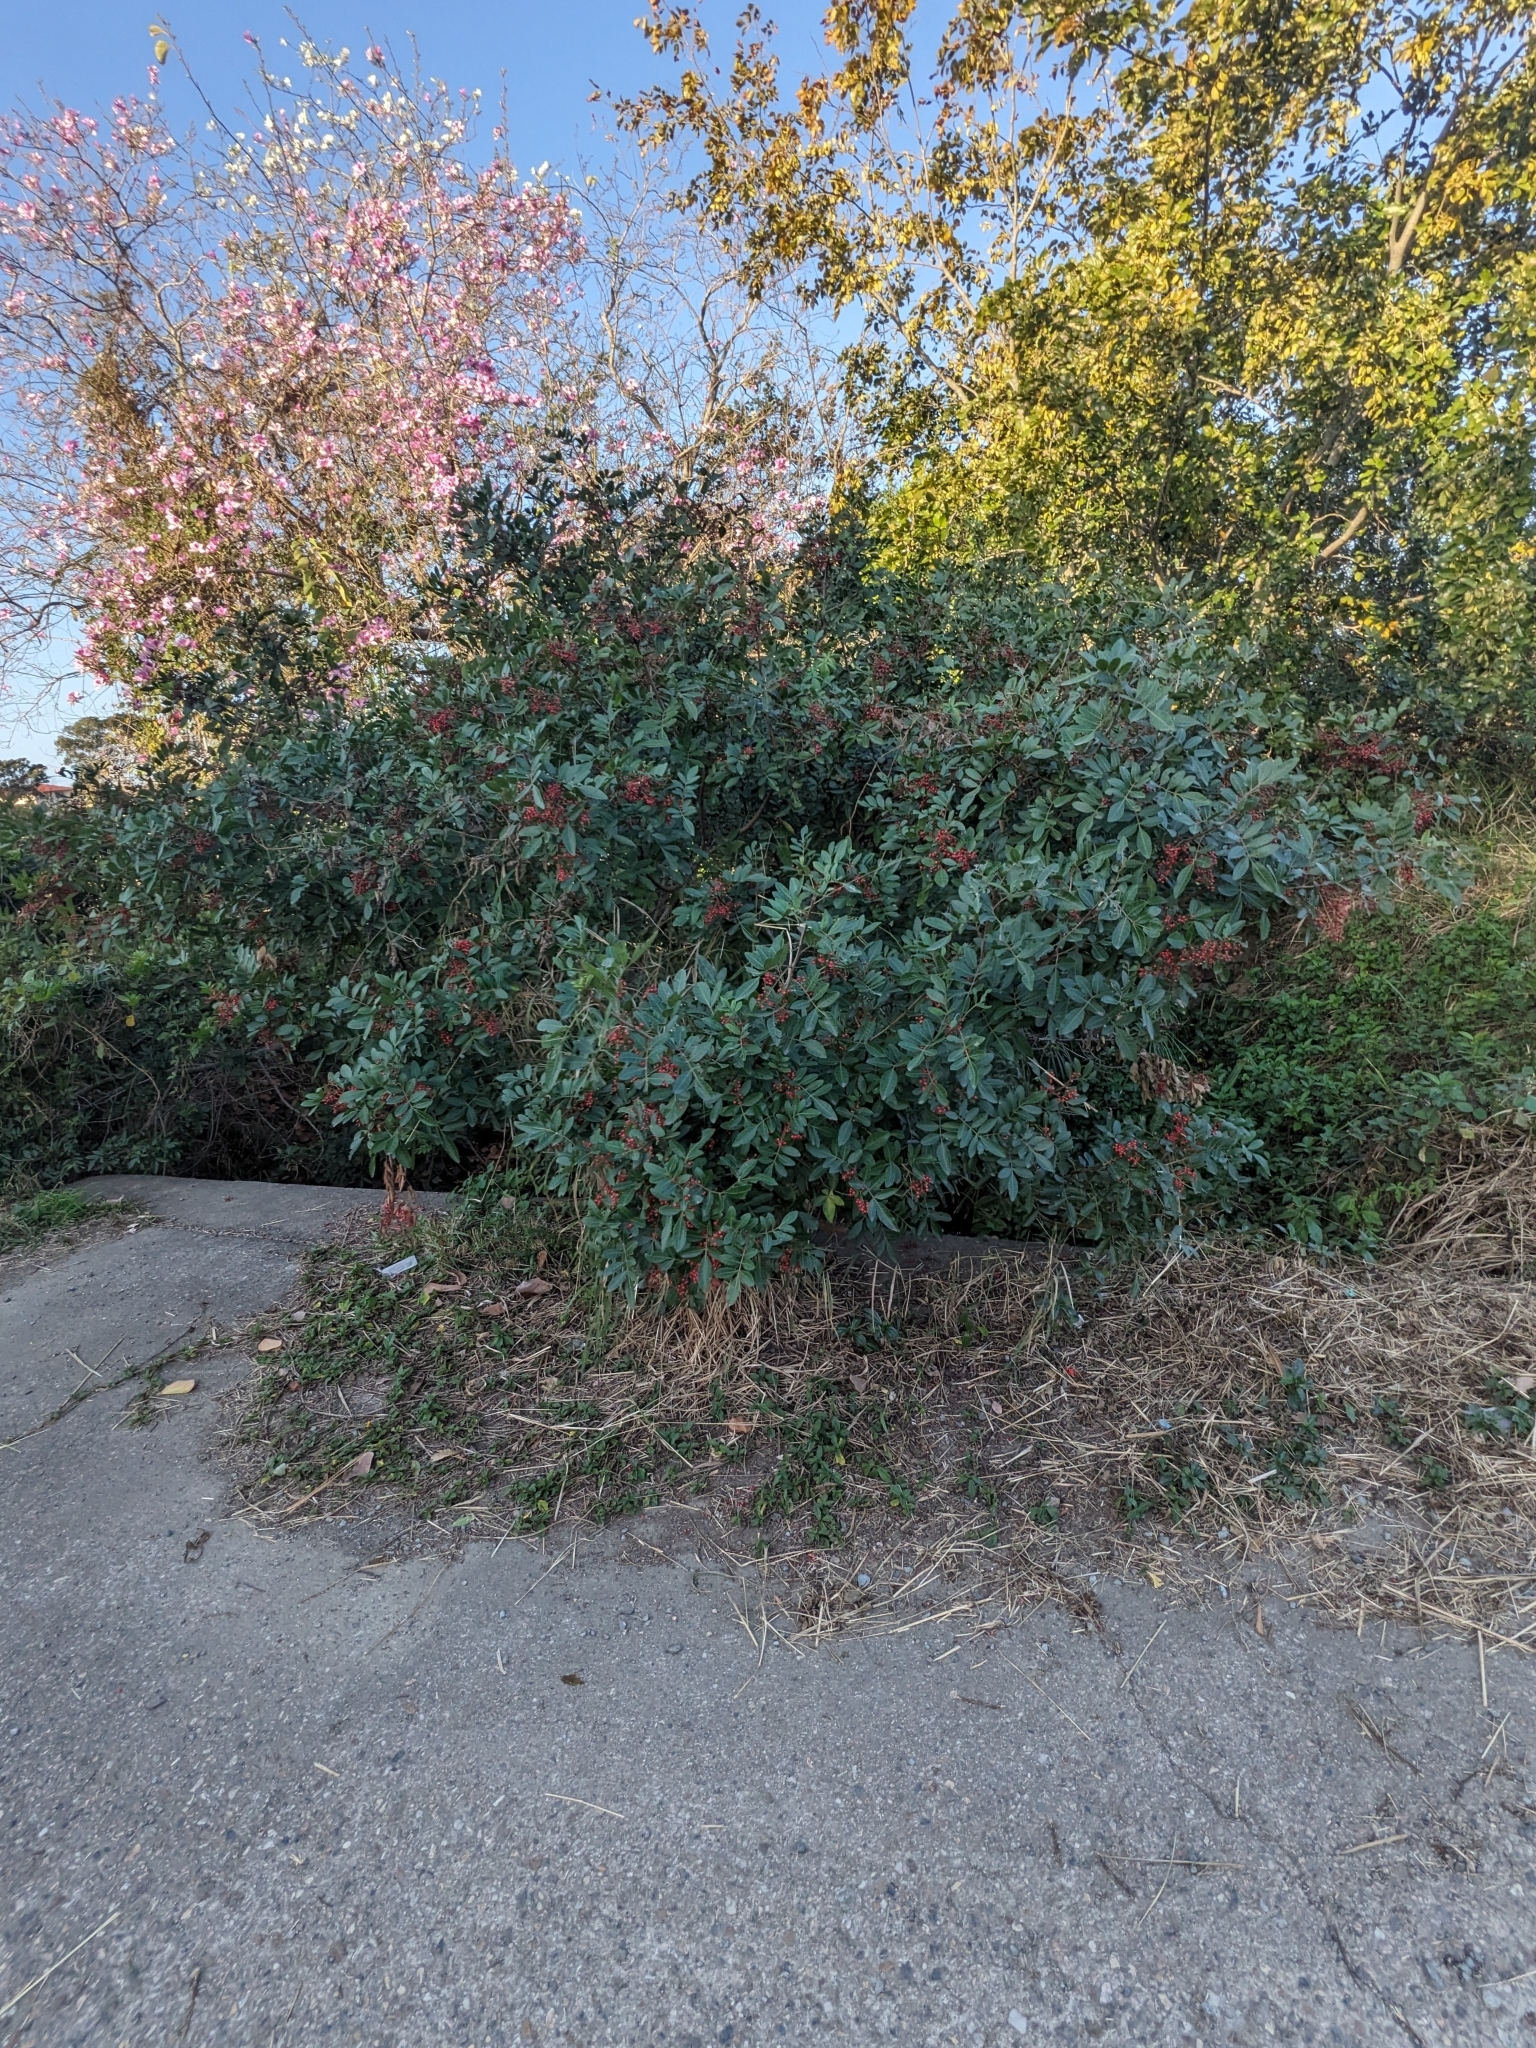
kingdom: Plantae
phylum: Tracheophyta
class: Magnoliopsida
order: Sapindales
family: Anacardiaceae
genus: Schinus
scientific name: Schinus terebinthifolia
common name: Brazilian peppertree
